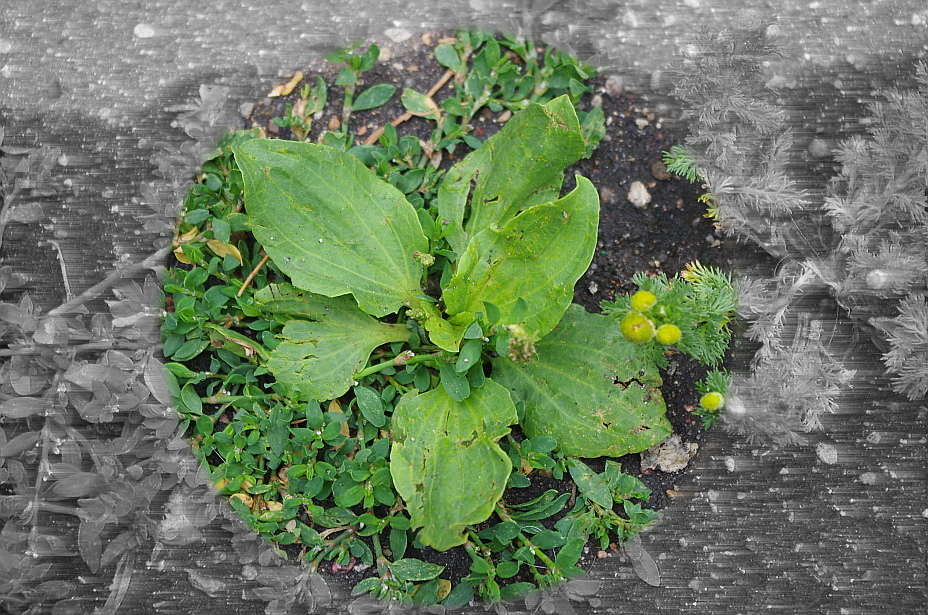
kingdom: Plantae
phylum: Tracheophyta
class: Magnoliopsida
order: Lamiales
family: Plantaginaceae
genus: Plantago
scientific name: Plantago major
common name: Common plantain
